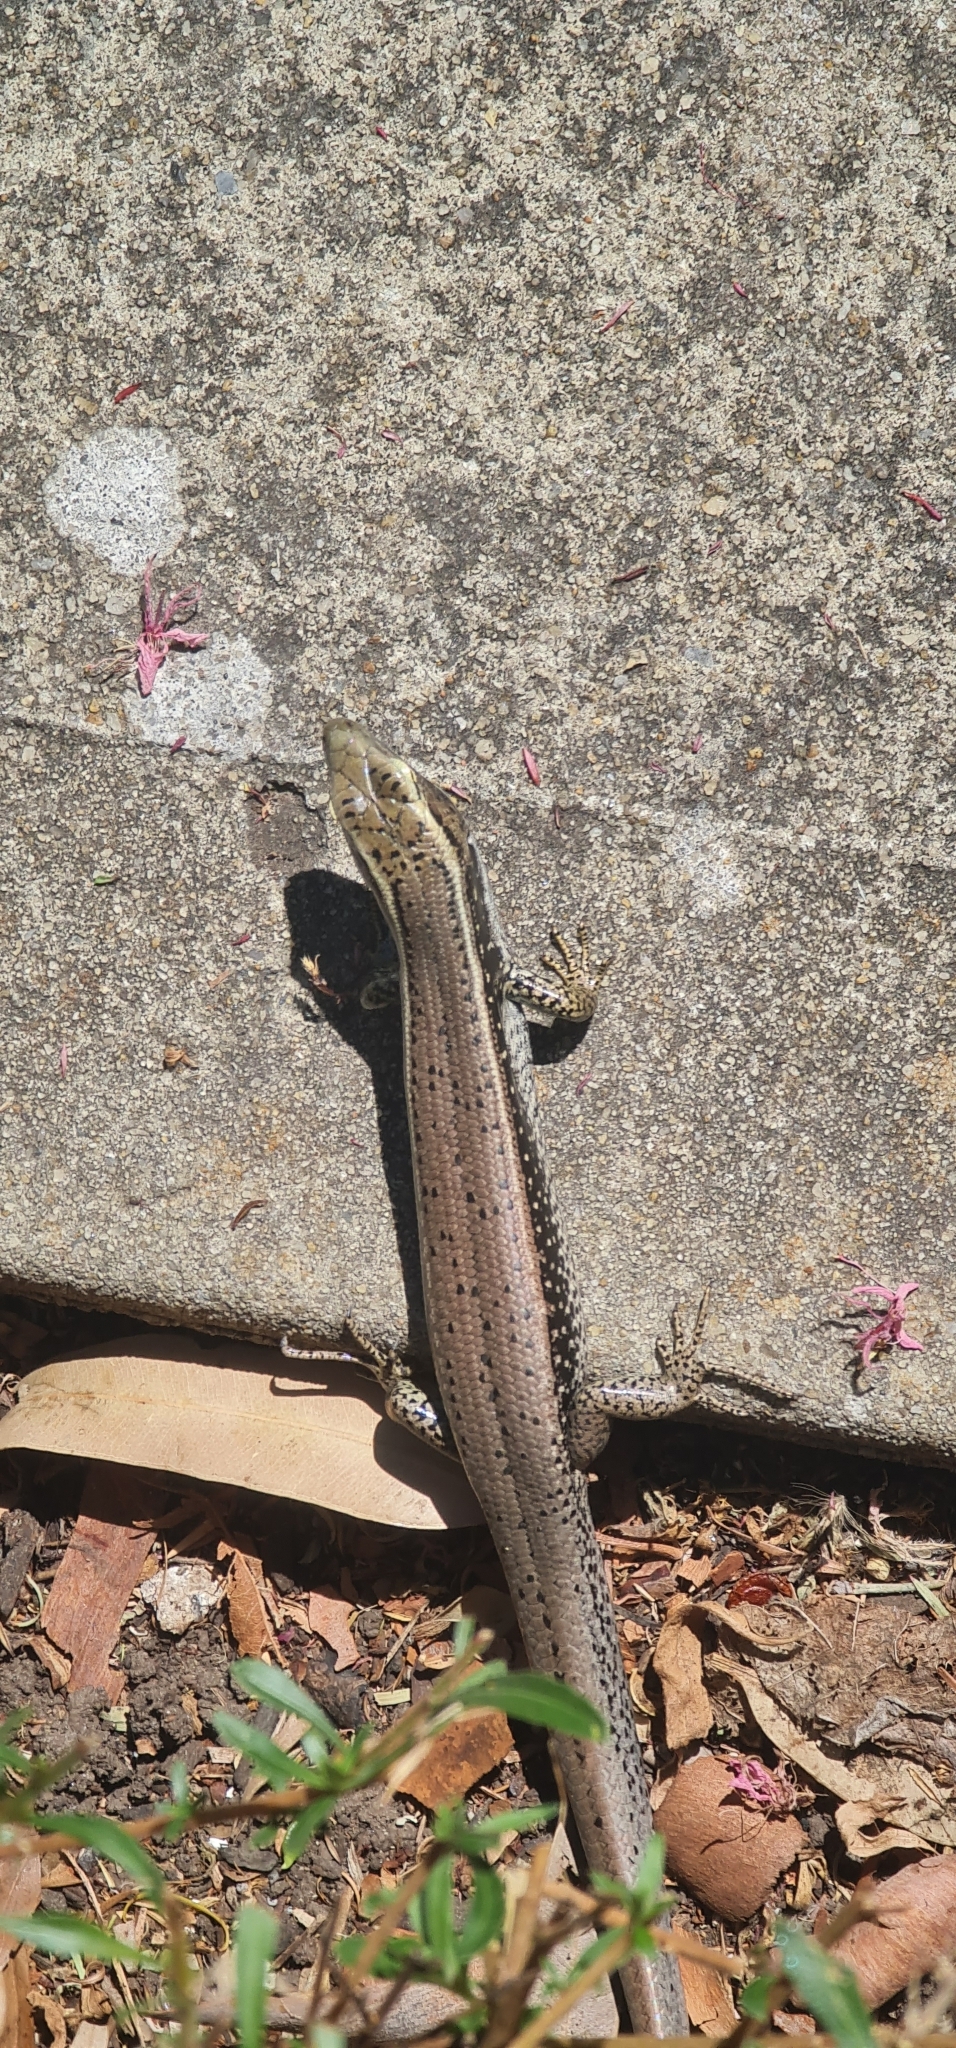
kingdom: Animalia
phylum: Chordata
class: Squamata
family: Scincidae
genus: Eulamprus
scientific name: Eulamprus quoyii
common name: Eastern water skink
